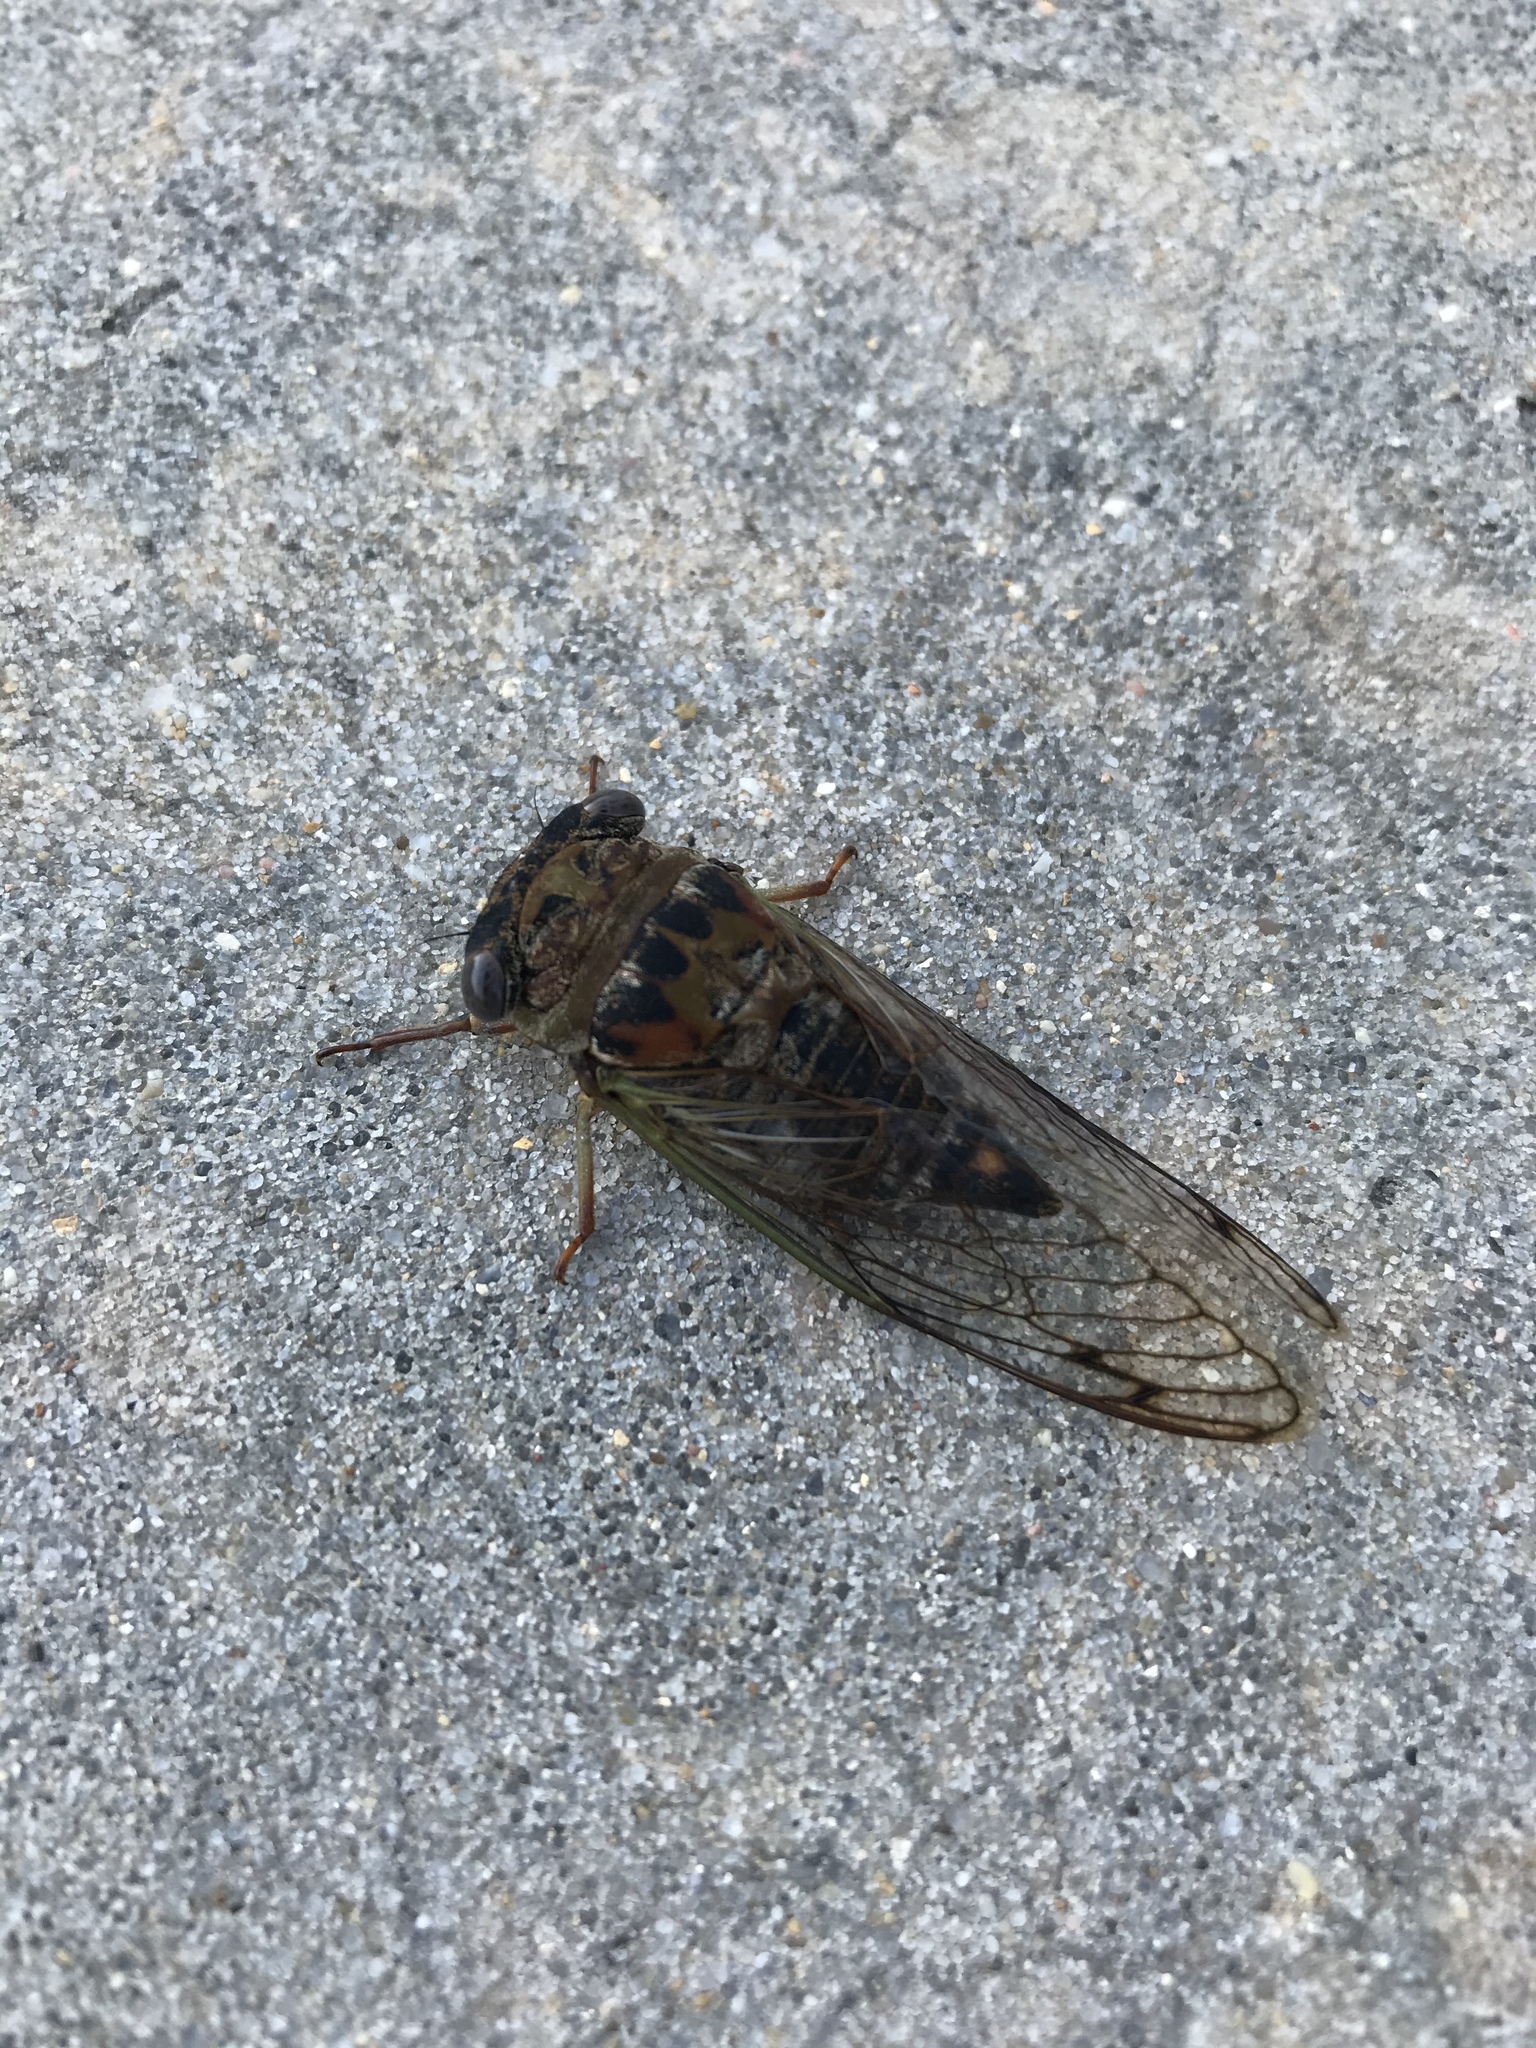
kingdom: Animalia
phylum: Arthropoda
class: Insecta
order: Hemiptera
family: Cicadidae
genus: Neotibicen
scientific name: Neotibicen davisi
